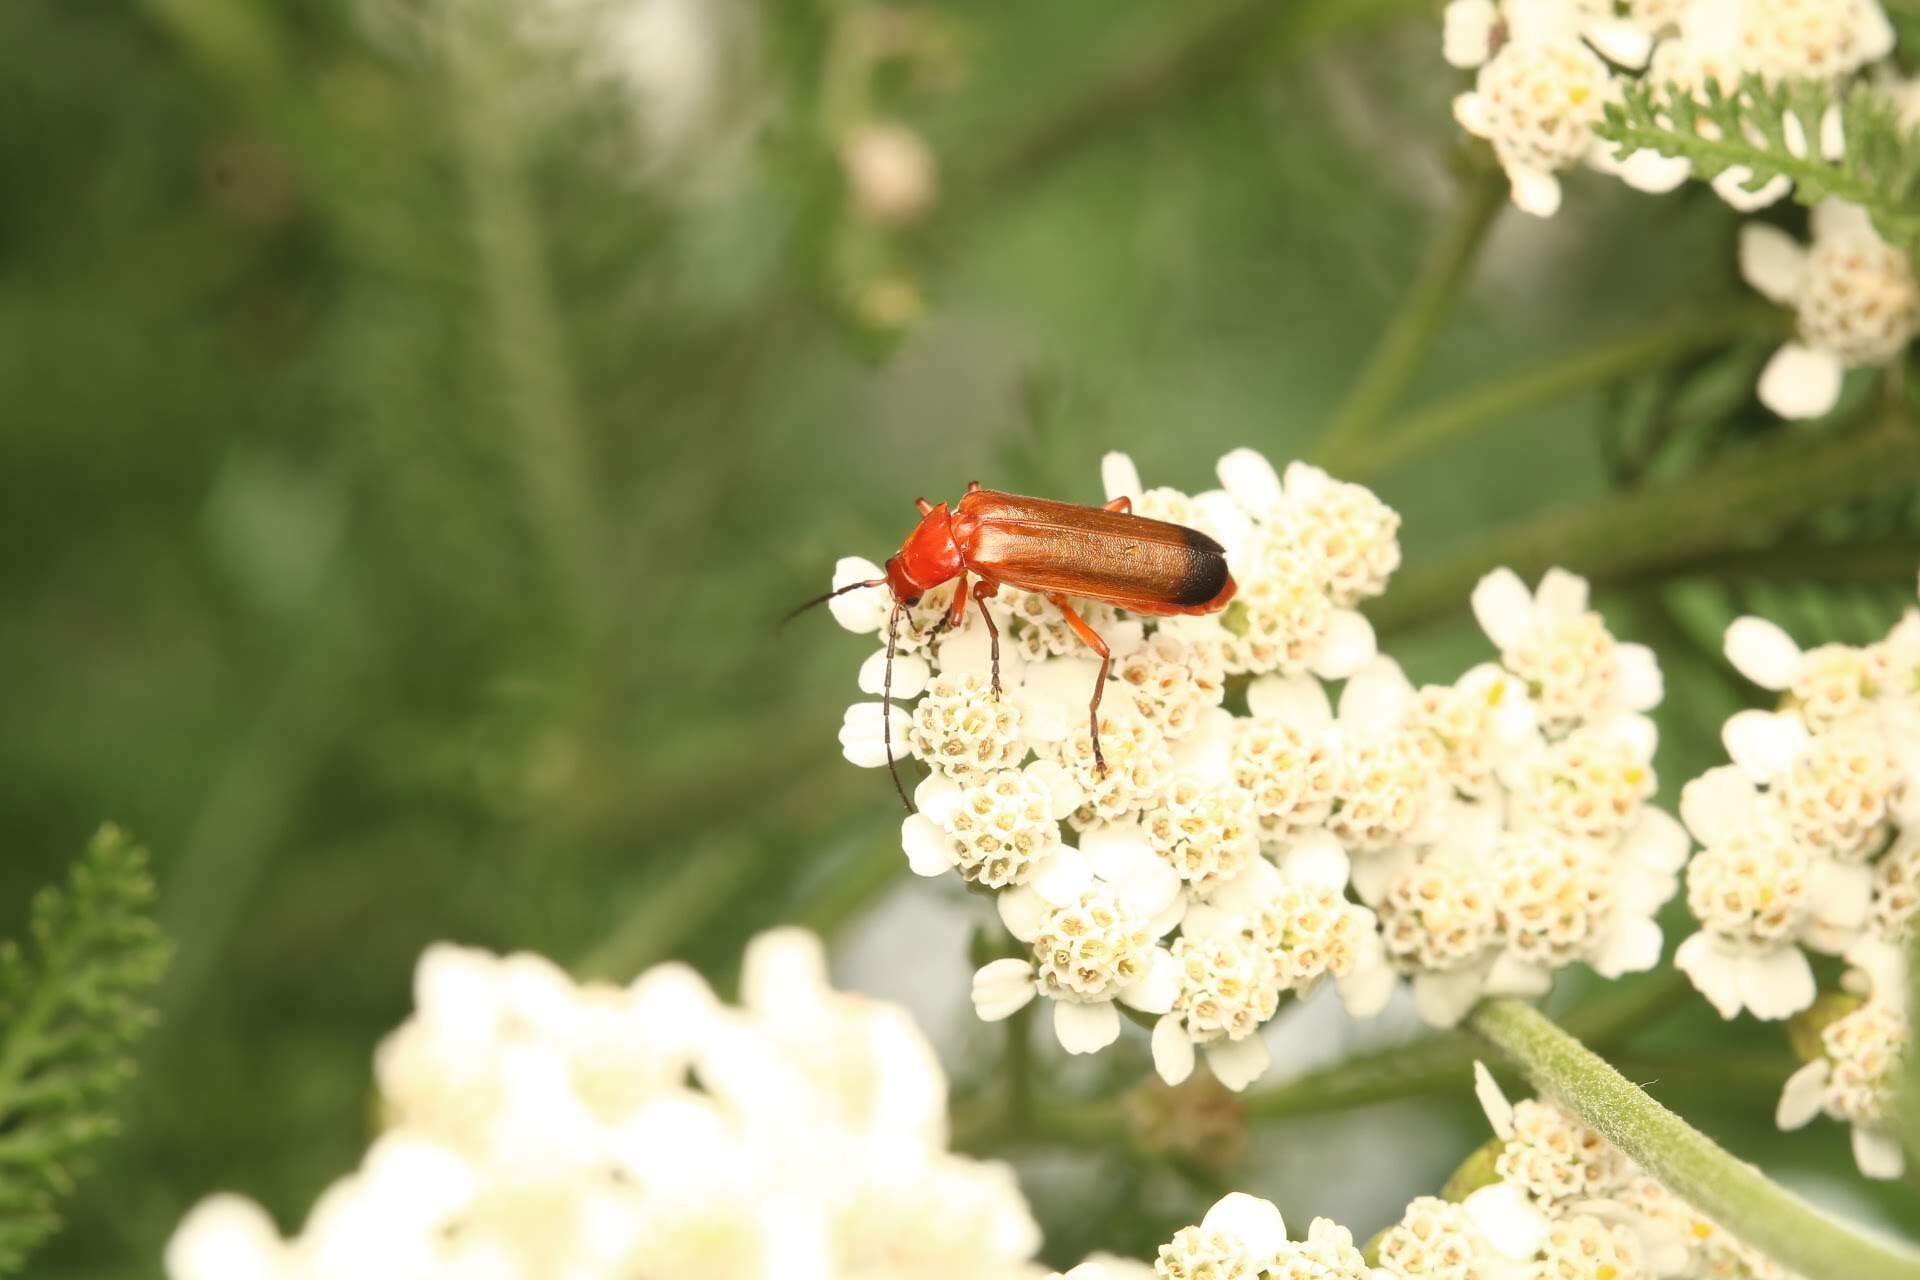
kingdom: Animalia
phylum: Arthropoda
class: Insecta
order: Coleoptera
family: Cantharidae
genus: Rhagonycha
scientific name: Rhagonycha fulva
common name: Common red soldier beetle
